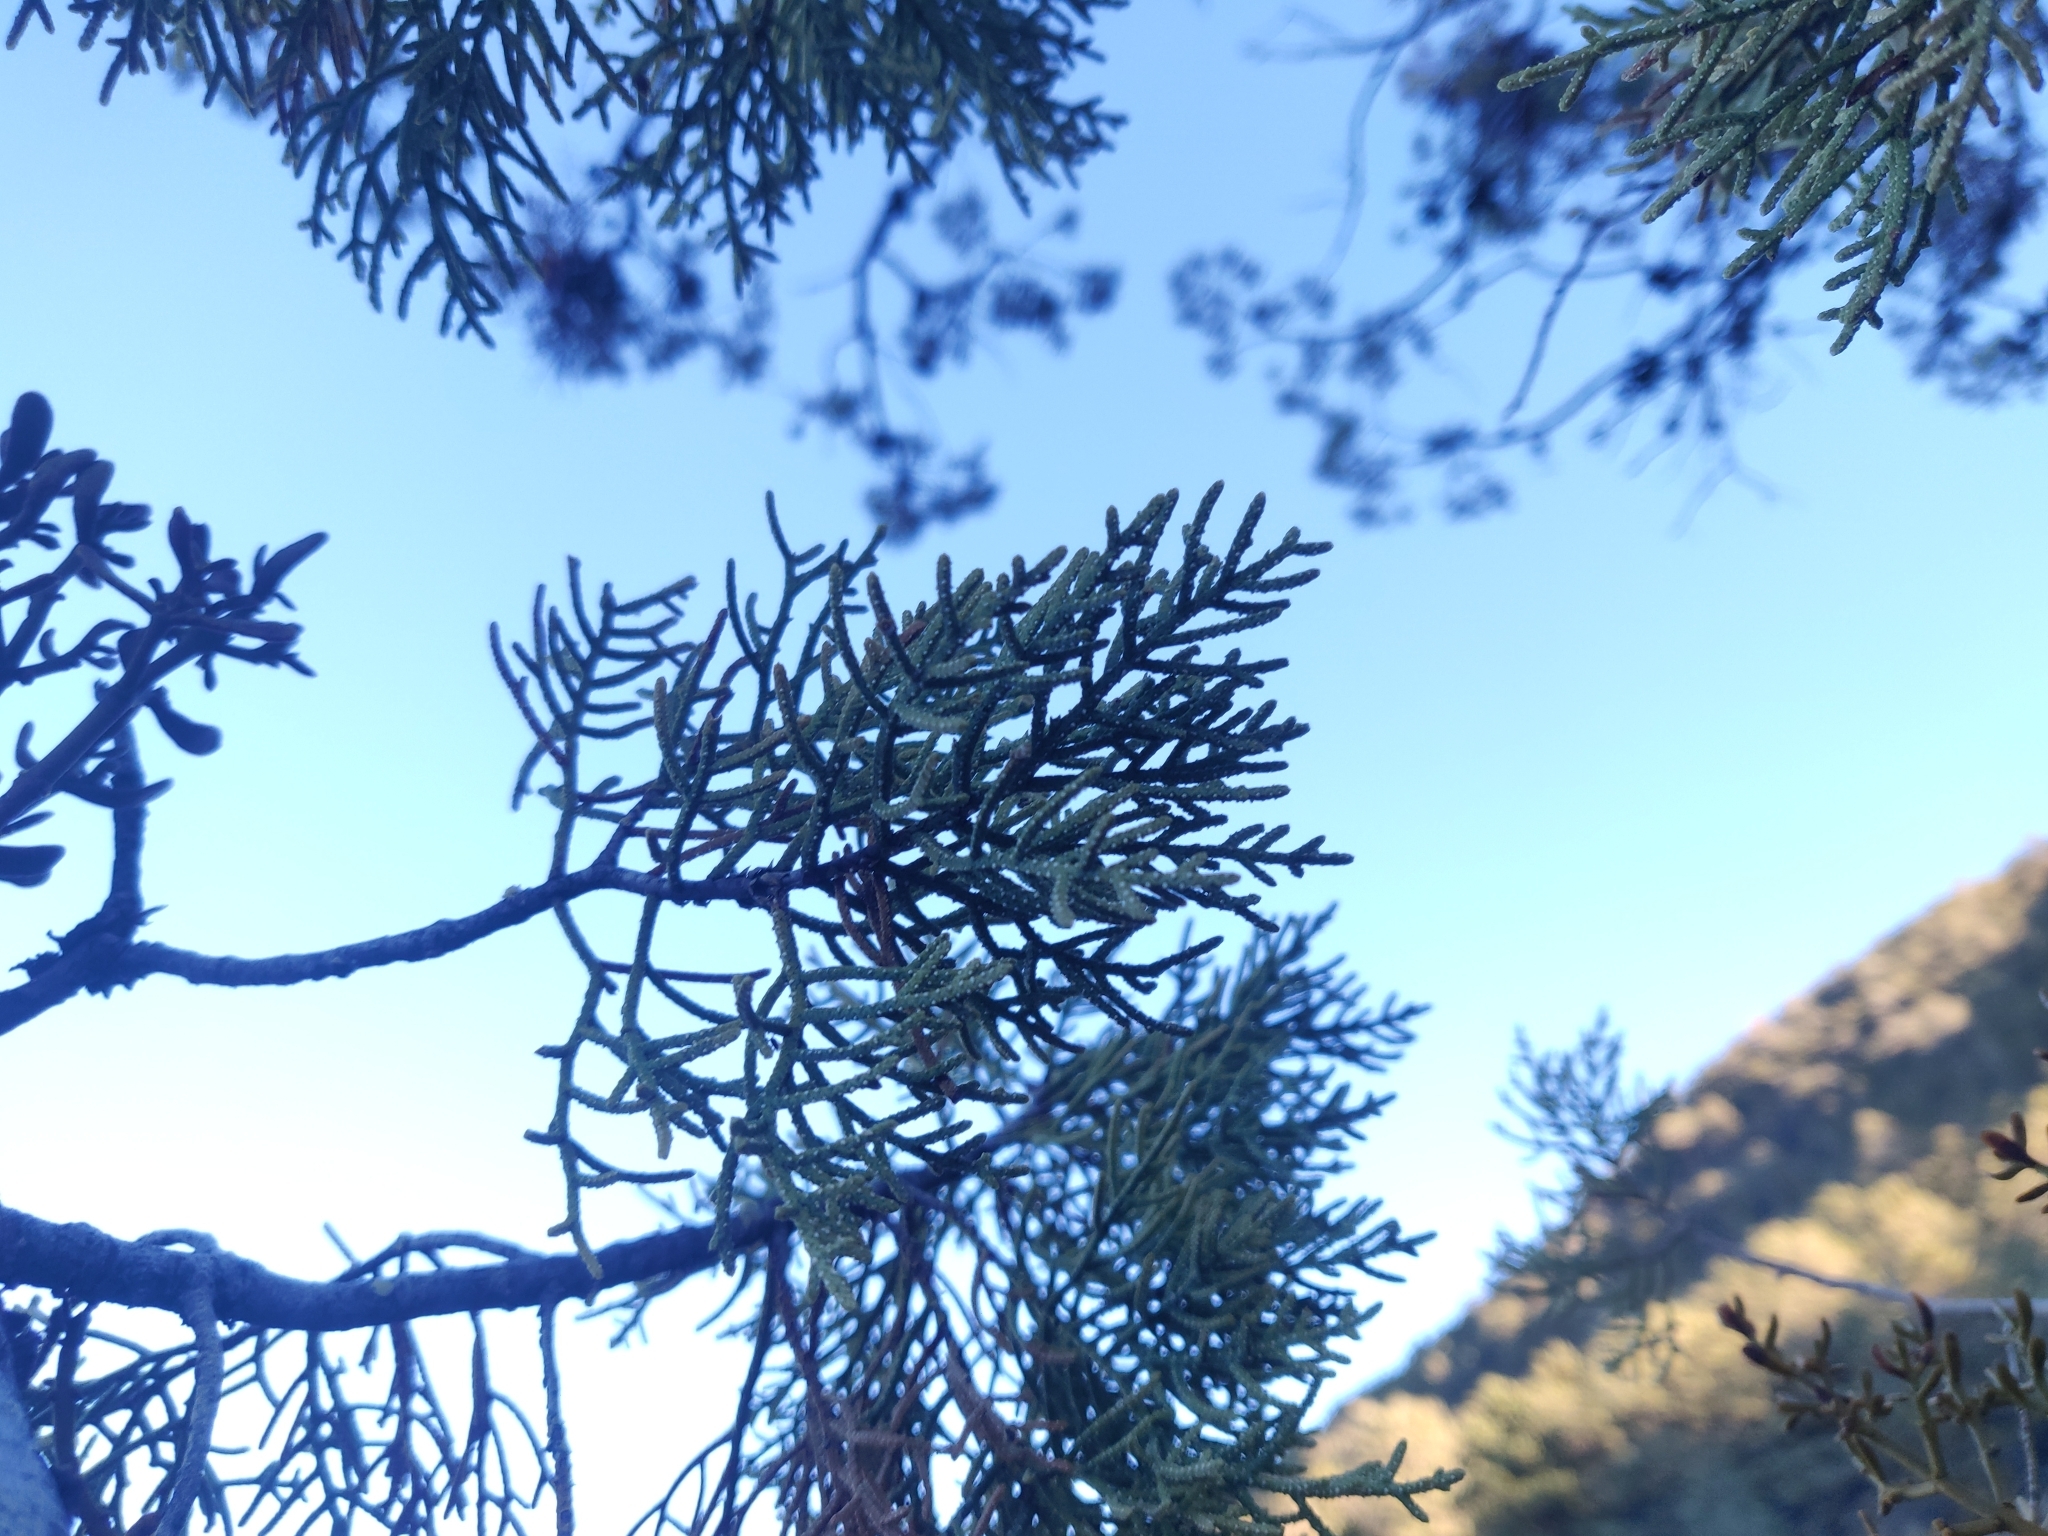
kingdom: Plantae
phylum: Tracheophyta
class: Pinopsida
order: Pinales
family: Cupressaceae
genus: Cupressus
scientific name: Cupressus arizonica
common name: Arizona cypress
